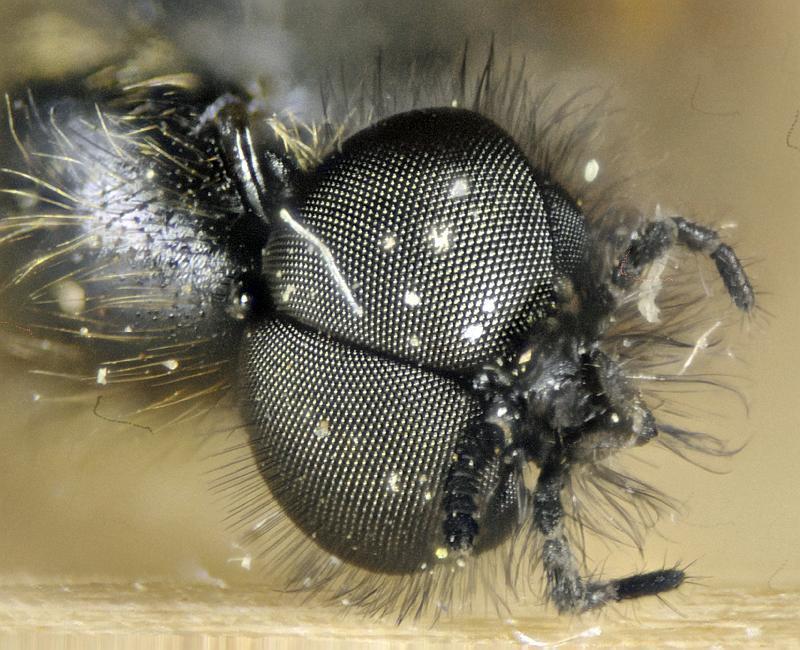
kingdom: Animalia
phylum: Arthropoda
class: Insecta
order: Diptera
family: Bibionidae
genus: Bibio
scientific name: Bibio
